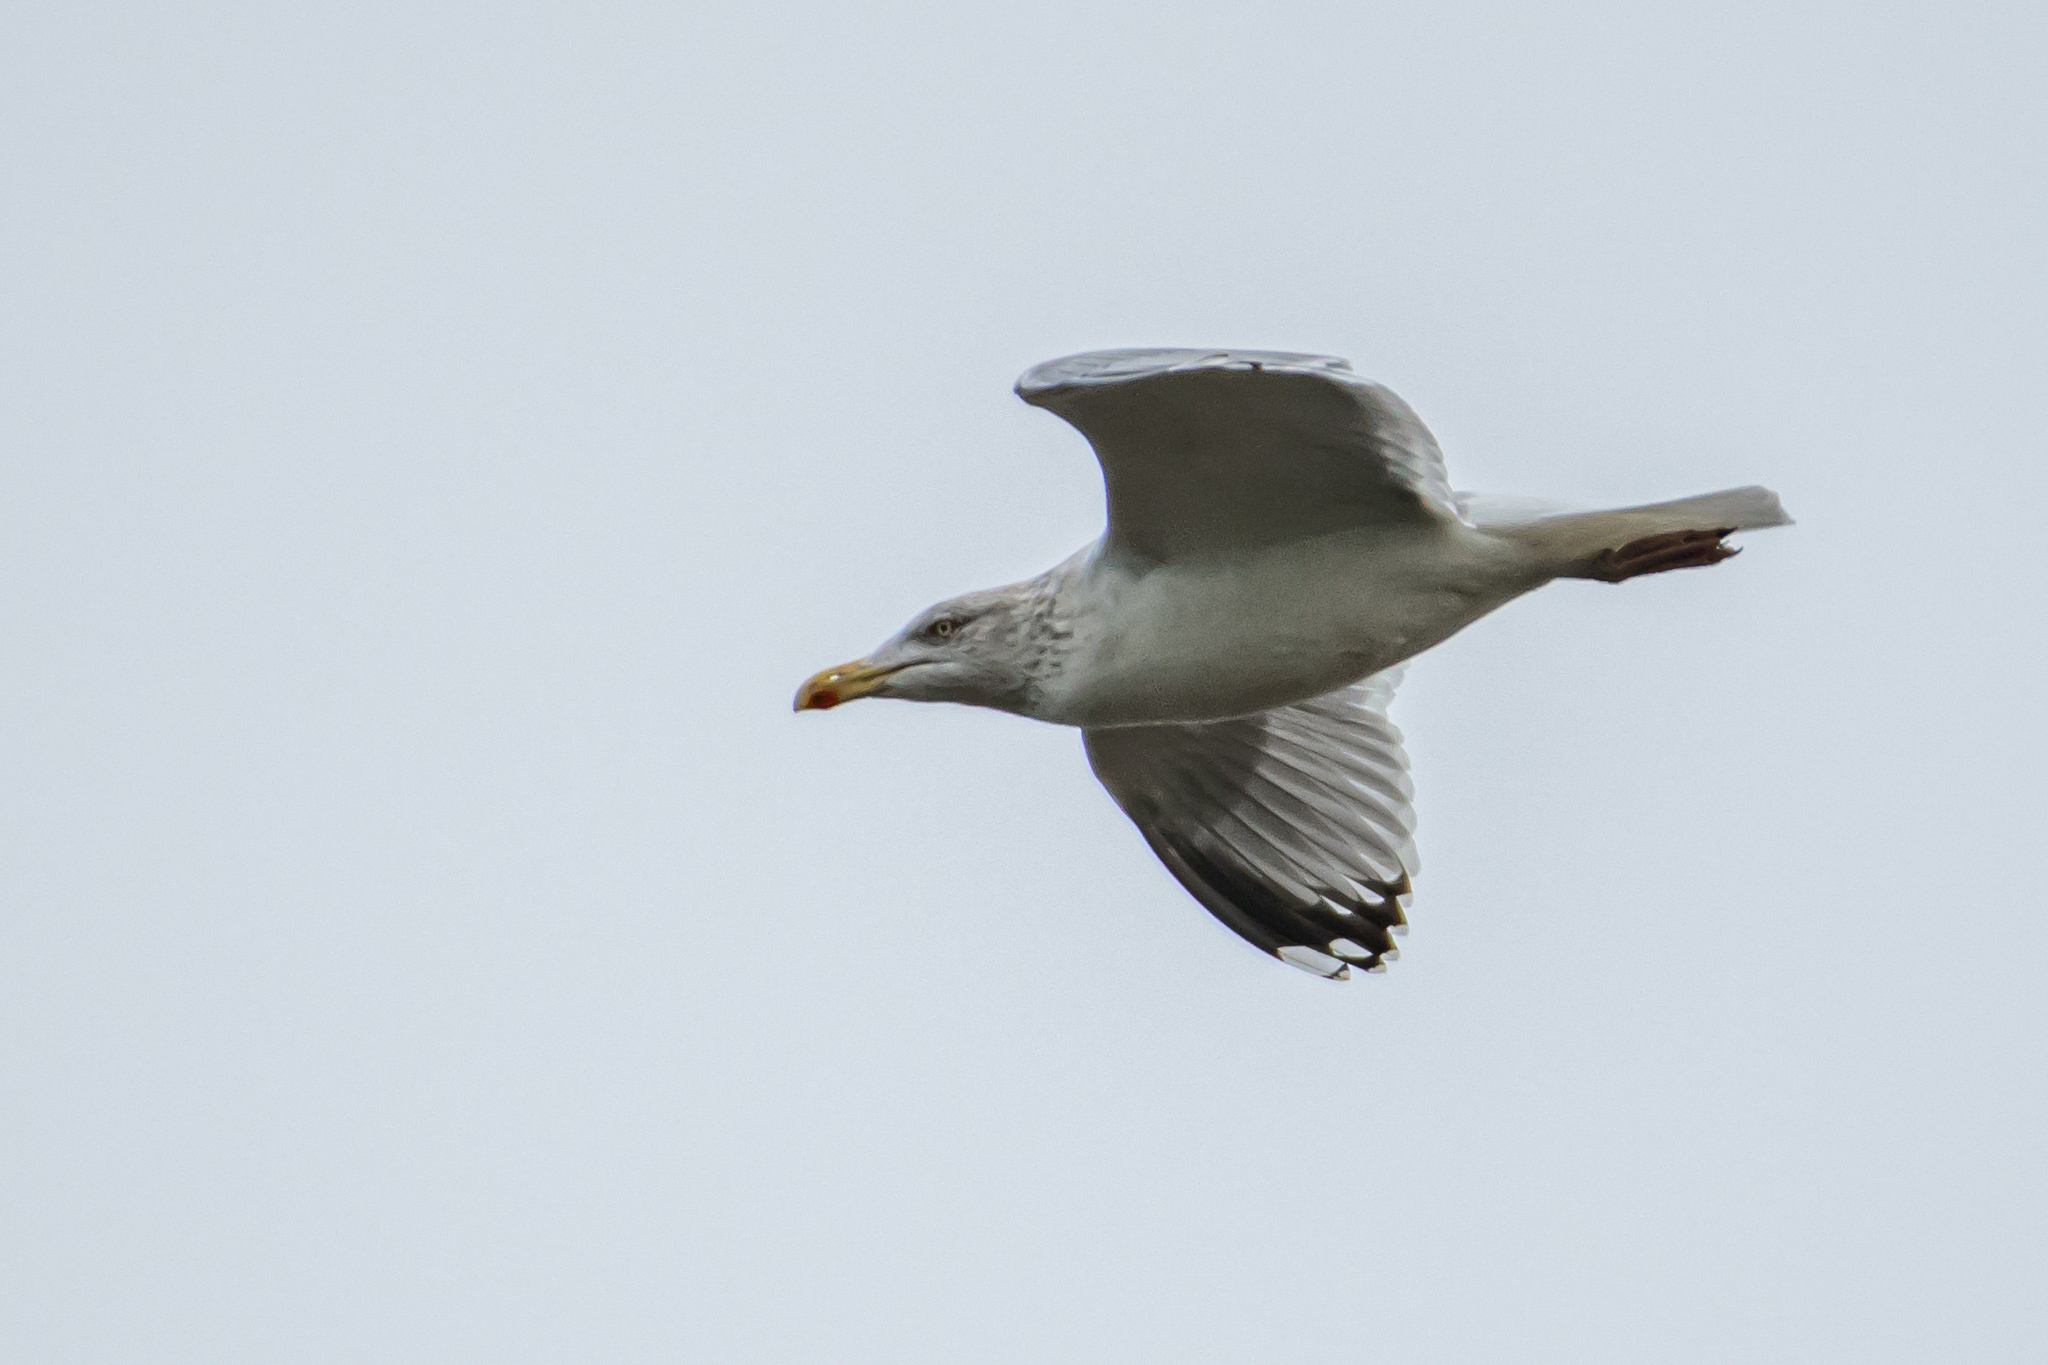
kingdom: Animalia
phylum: Chordata
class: Aves
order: Charadriiformes
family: Laridae
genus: Larus
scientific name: Larus argentatus
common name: Herring gull
